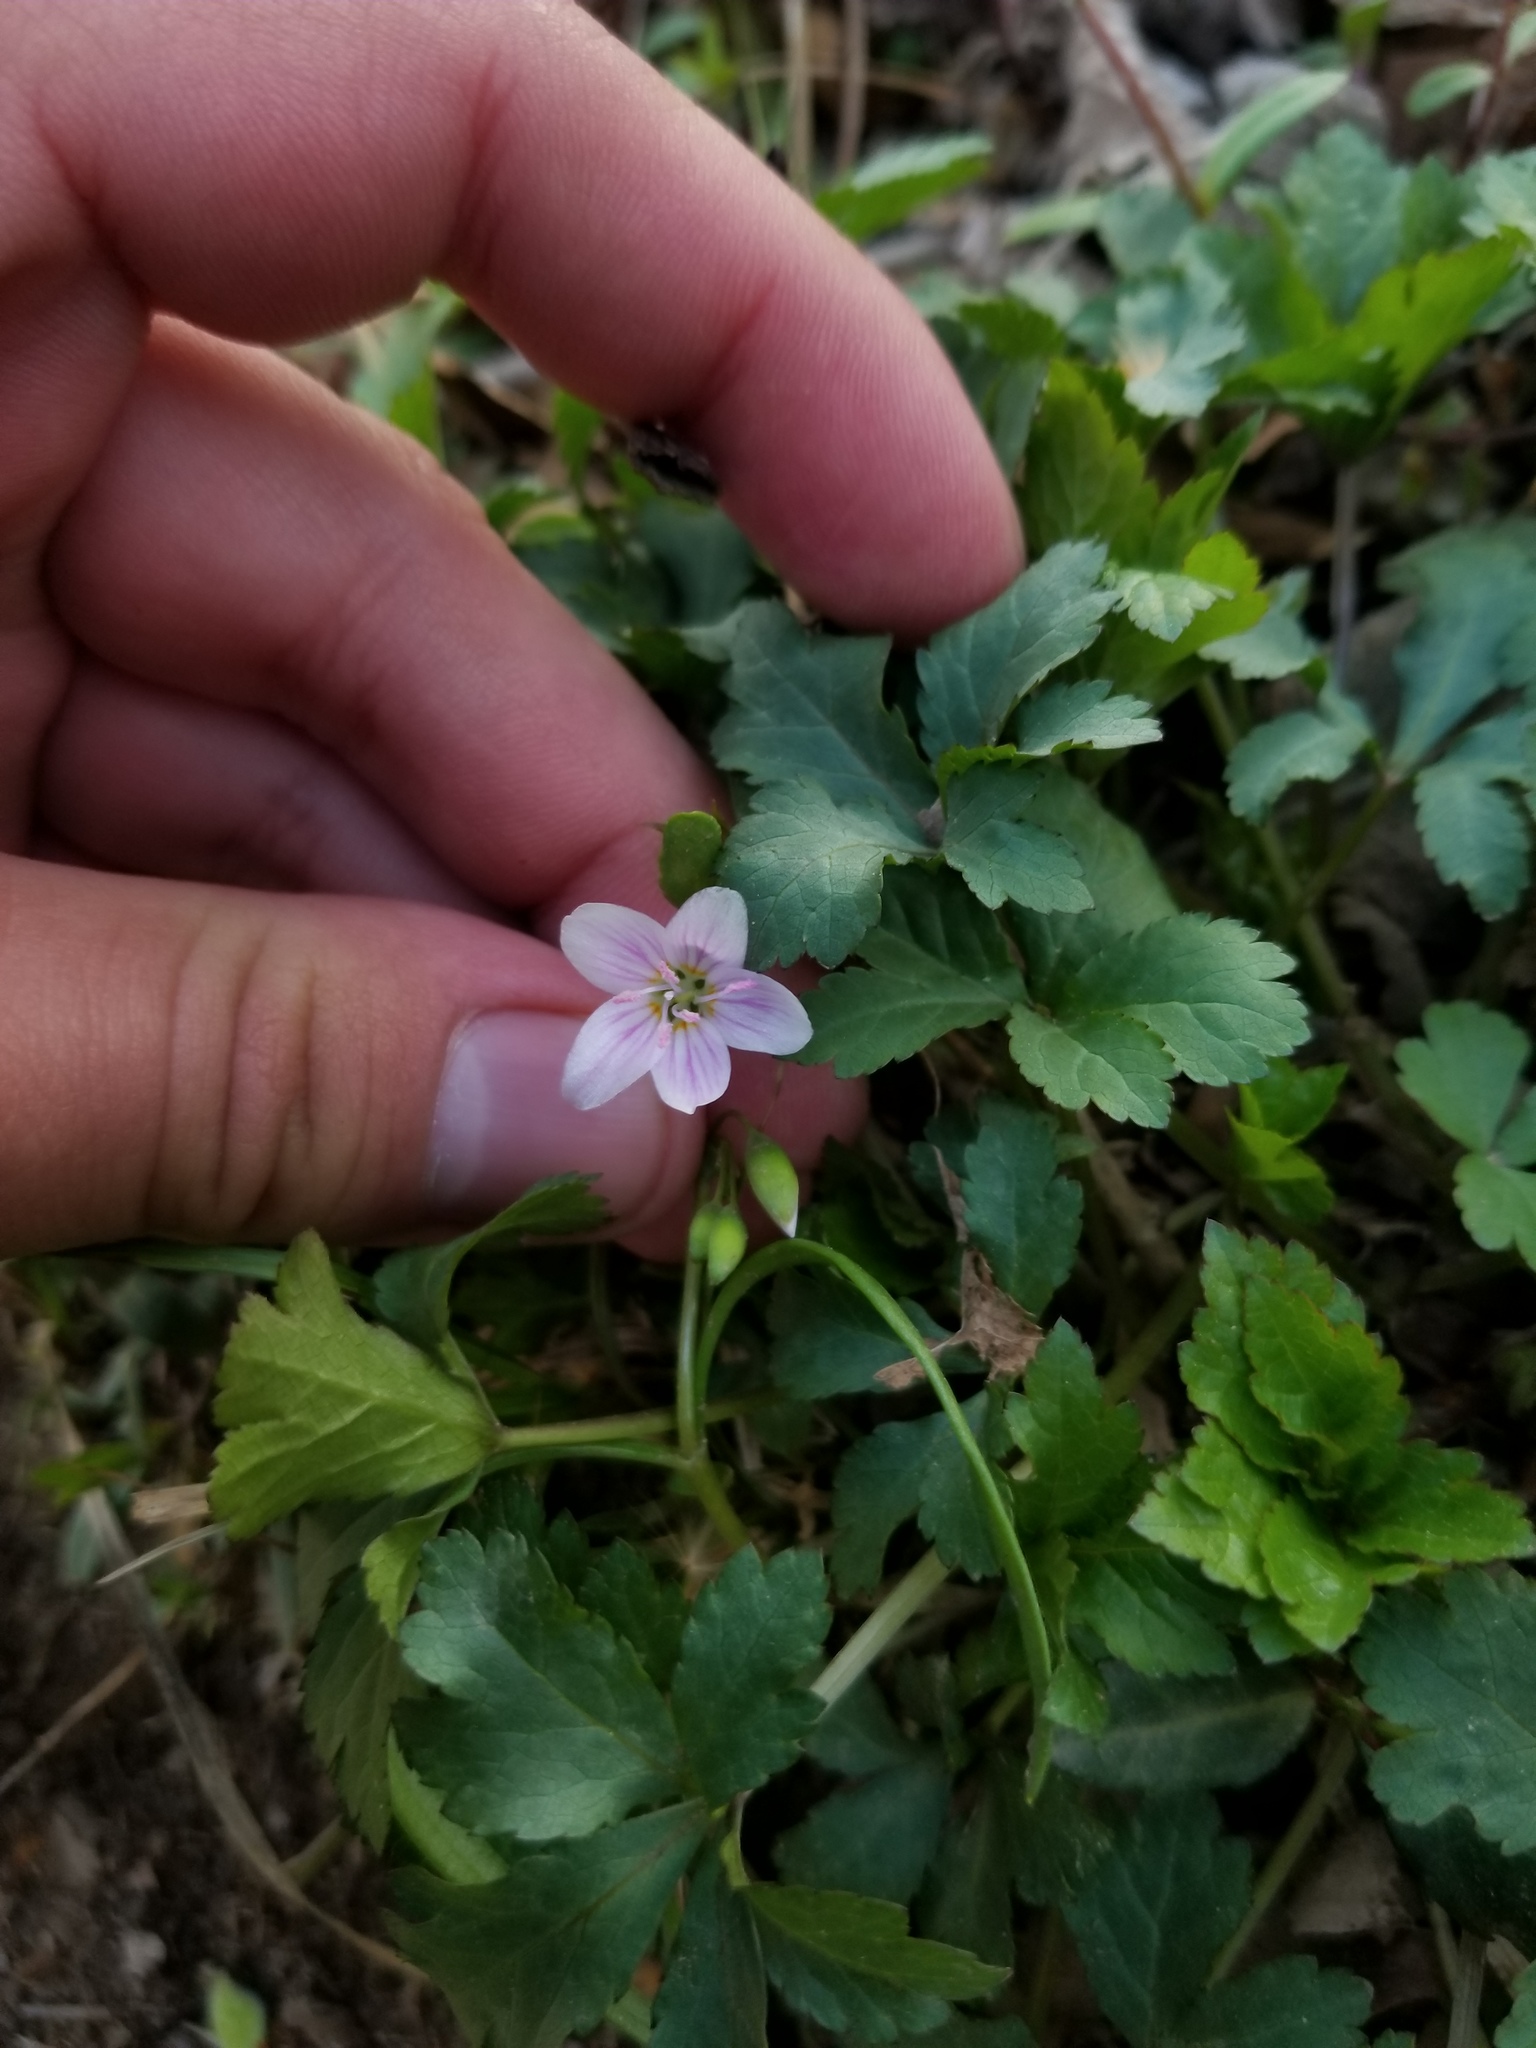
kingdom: Plantae
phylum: Tracheophyta
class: Magnoliopsida
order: Caryophyllales
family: Montiaceae
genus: Claytonia
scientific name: Claytonia virginica
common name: Virginia springbeauty
